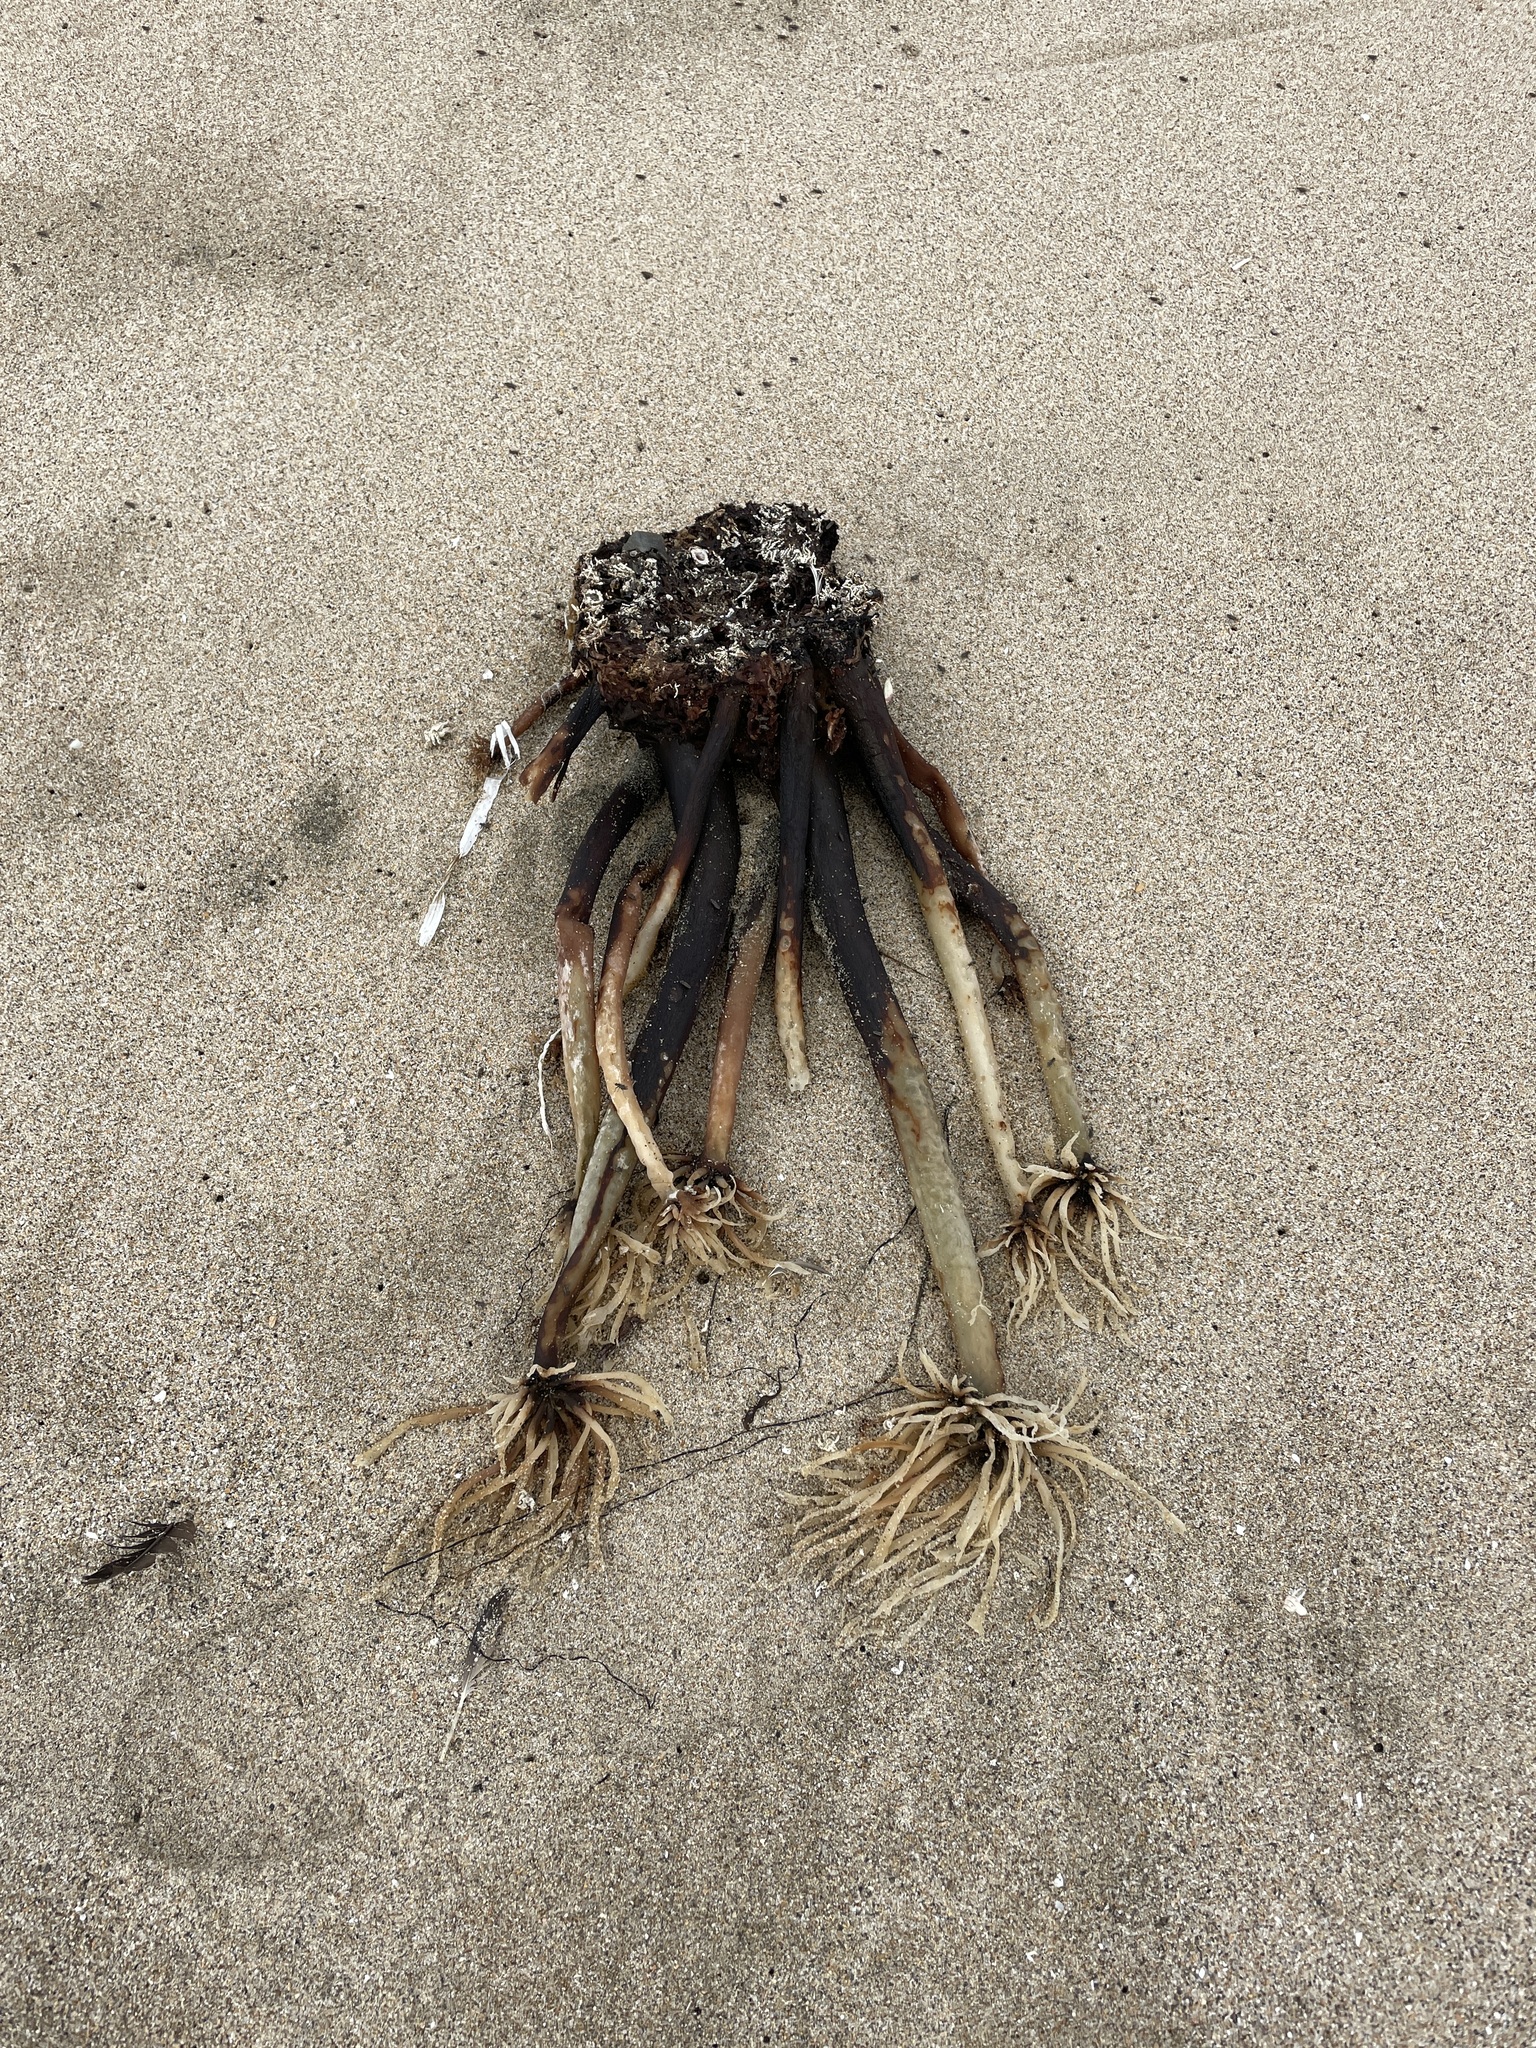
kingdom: Chromista
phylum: Ochrophyta
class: Phaeophyceae
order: Laminariales
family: Laminariaceae
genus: Postelsia
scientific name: Postelsia palmiformis
